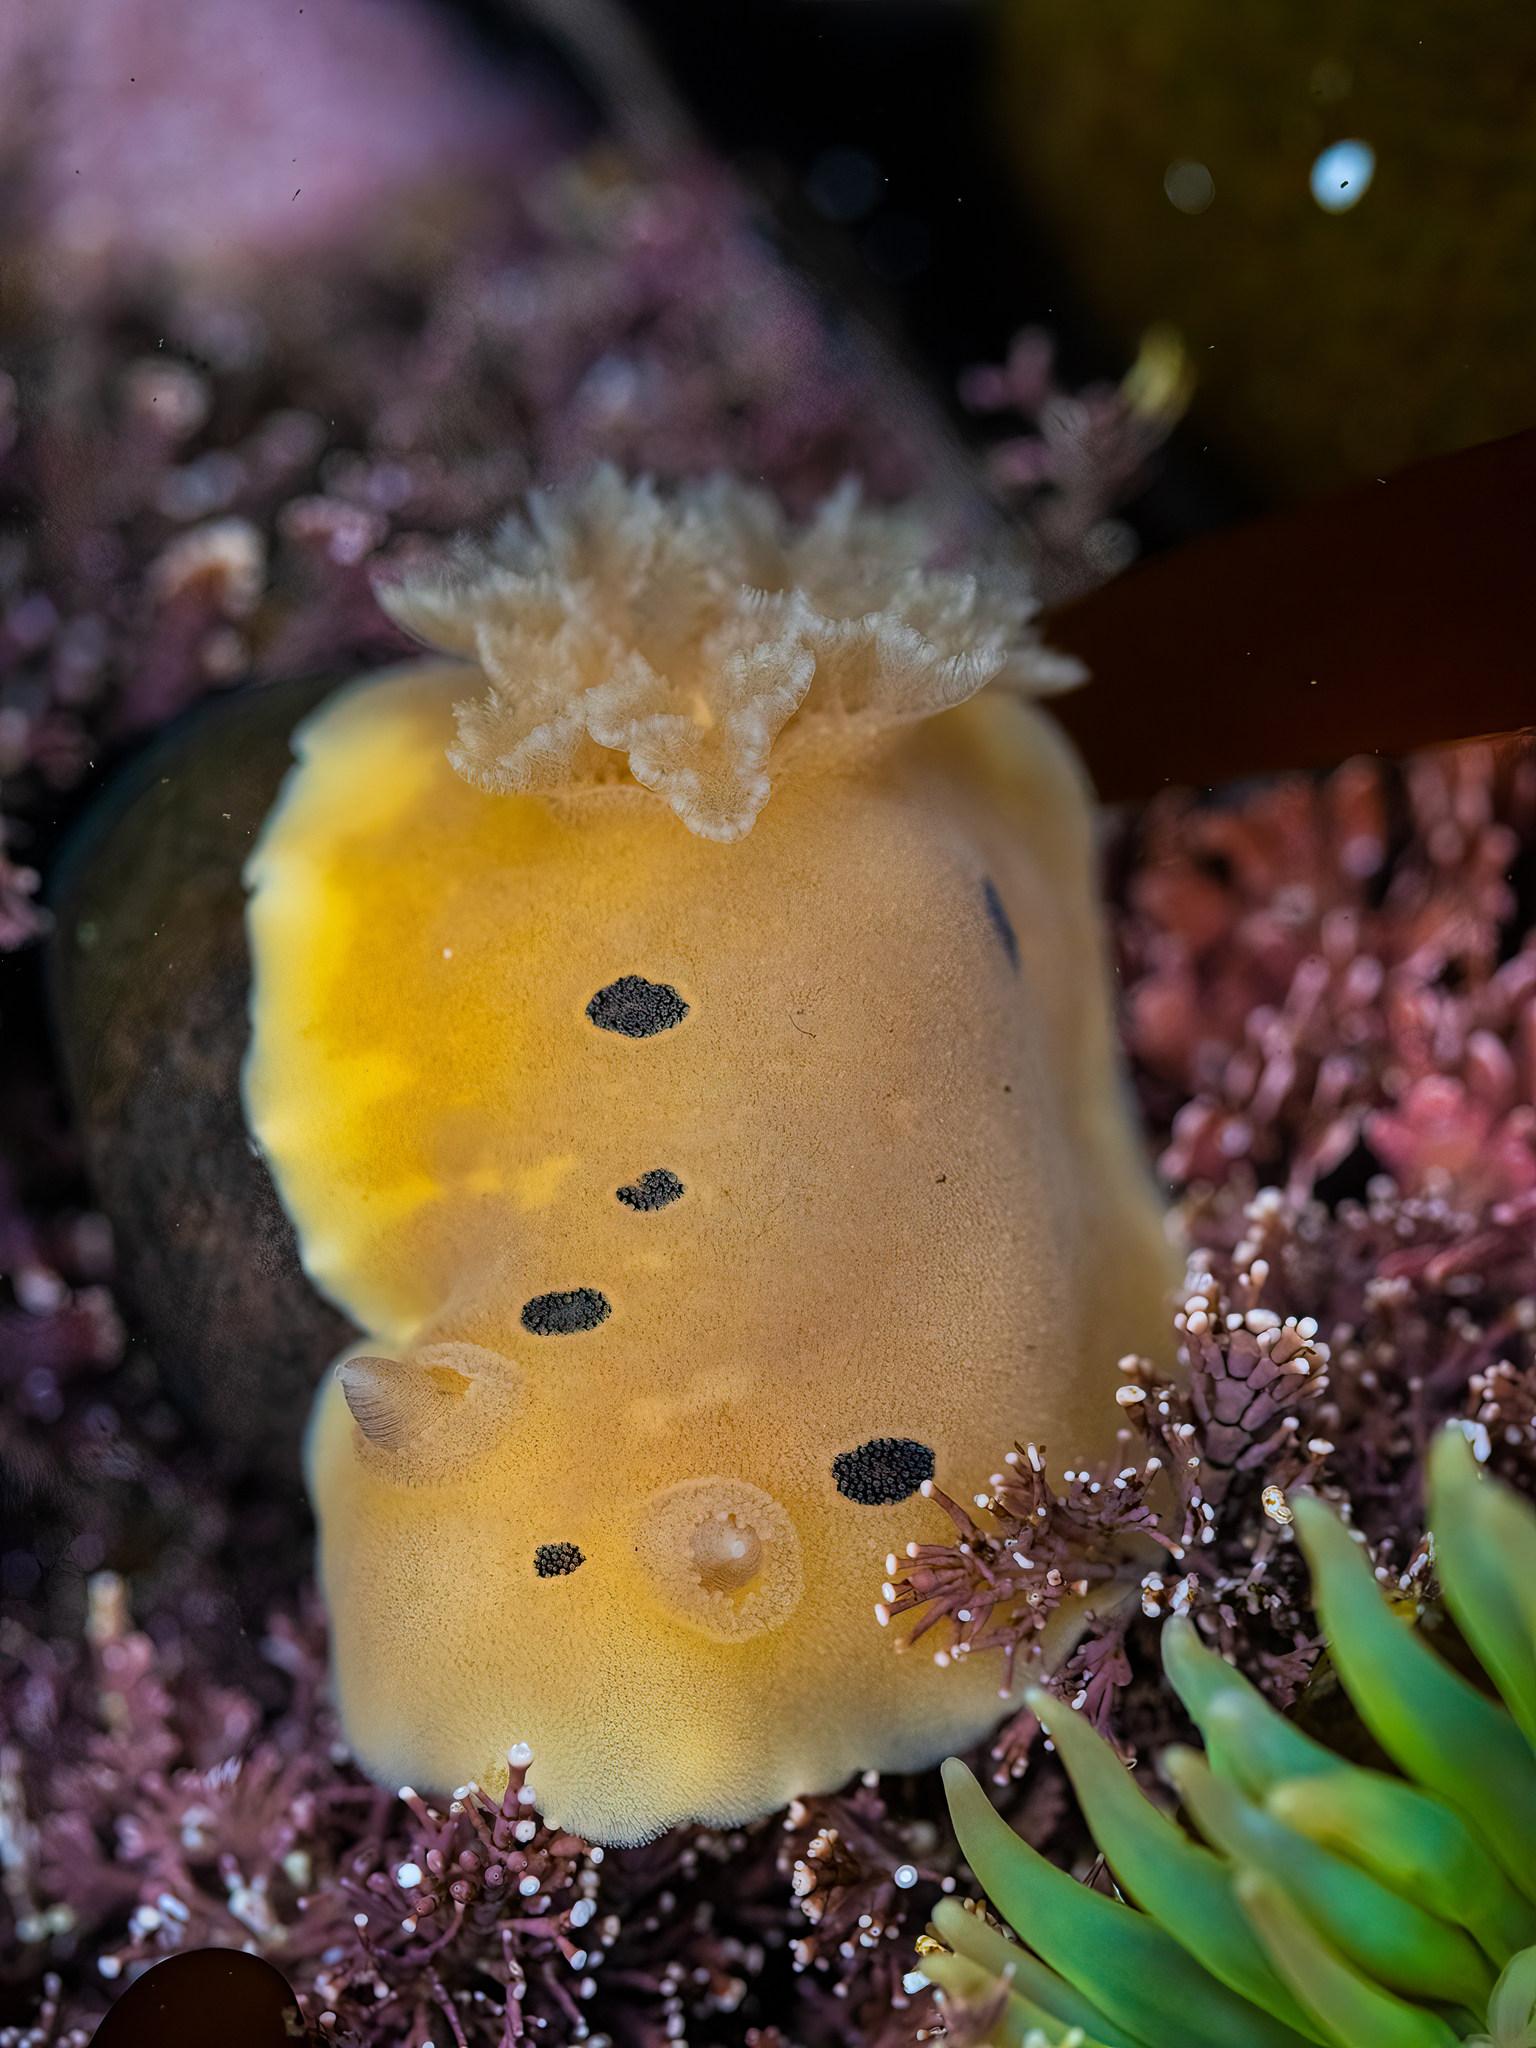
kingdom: Animalia
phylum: Mollusca
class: Gastropoda
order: Nudibranchia
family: Discodorididae
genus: Diaulula
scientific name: Diaulula sandiegensis
